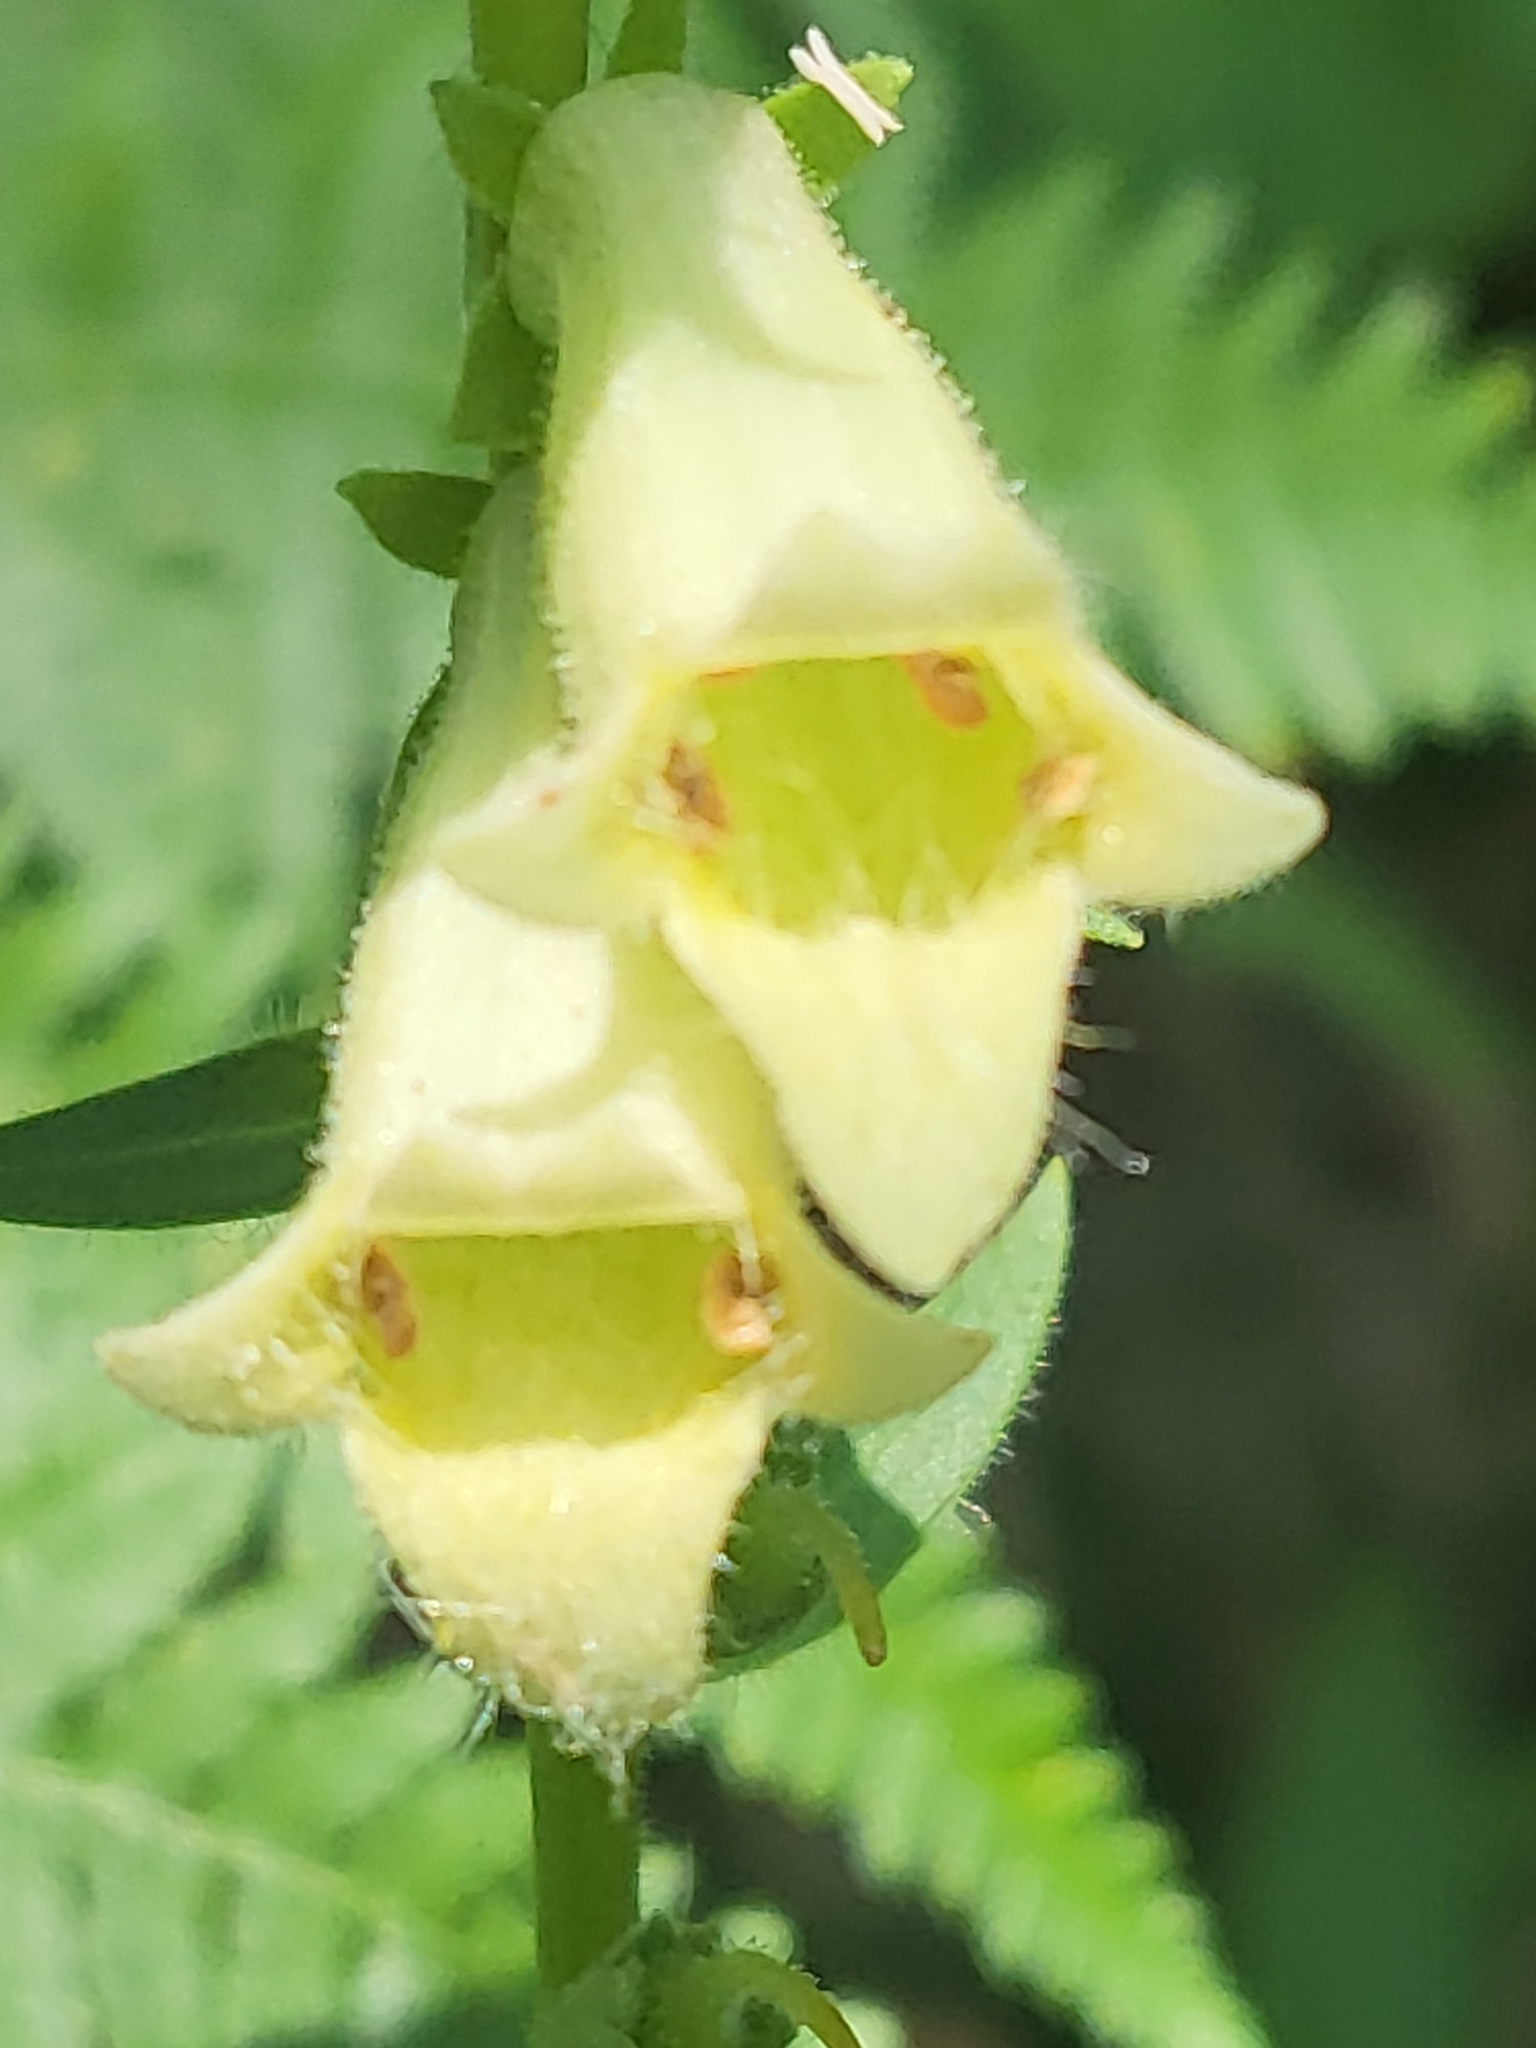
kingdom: Plantae
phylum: Tracheophyta
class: Magnoliopsida
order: Lamiales
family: Plantaginaceae
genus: Digitalis
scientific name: Digitalis lutea
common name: Straw foxglove
